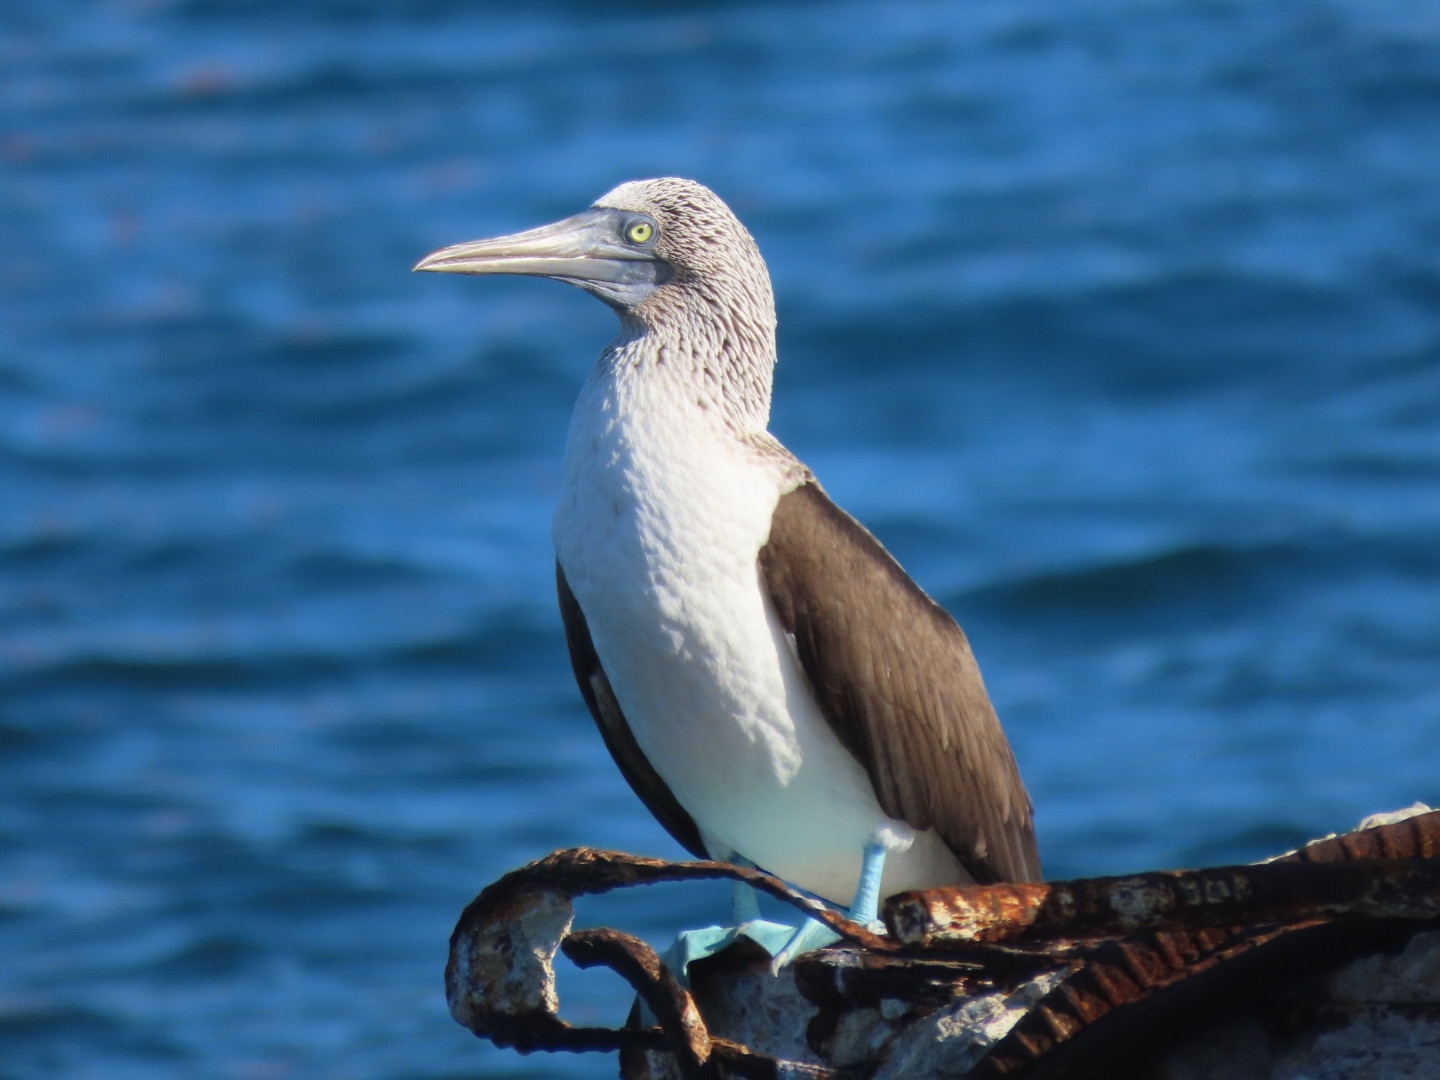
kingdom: Animalia
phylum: Chordata
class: Aves
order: Suliformes
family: Sulidae
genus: Sula
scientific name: Sula nebouxii
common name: Blue-footed booby
